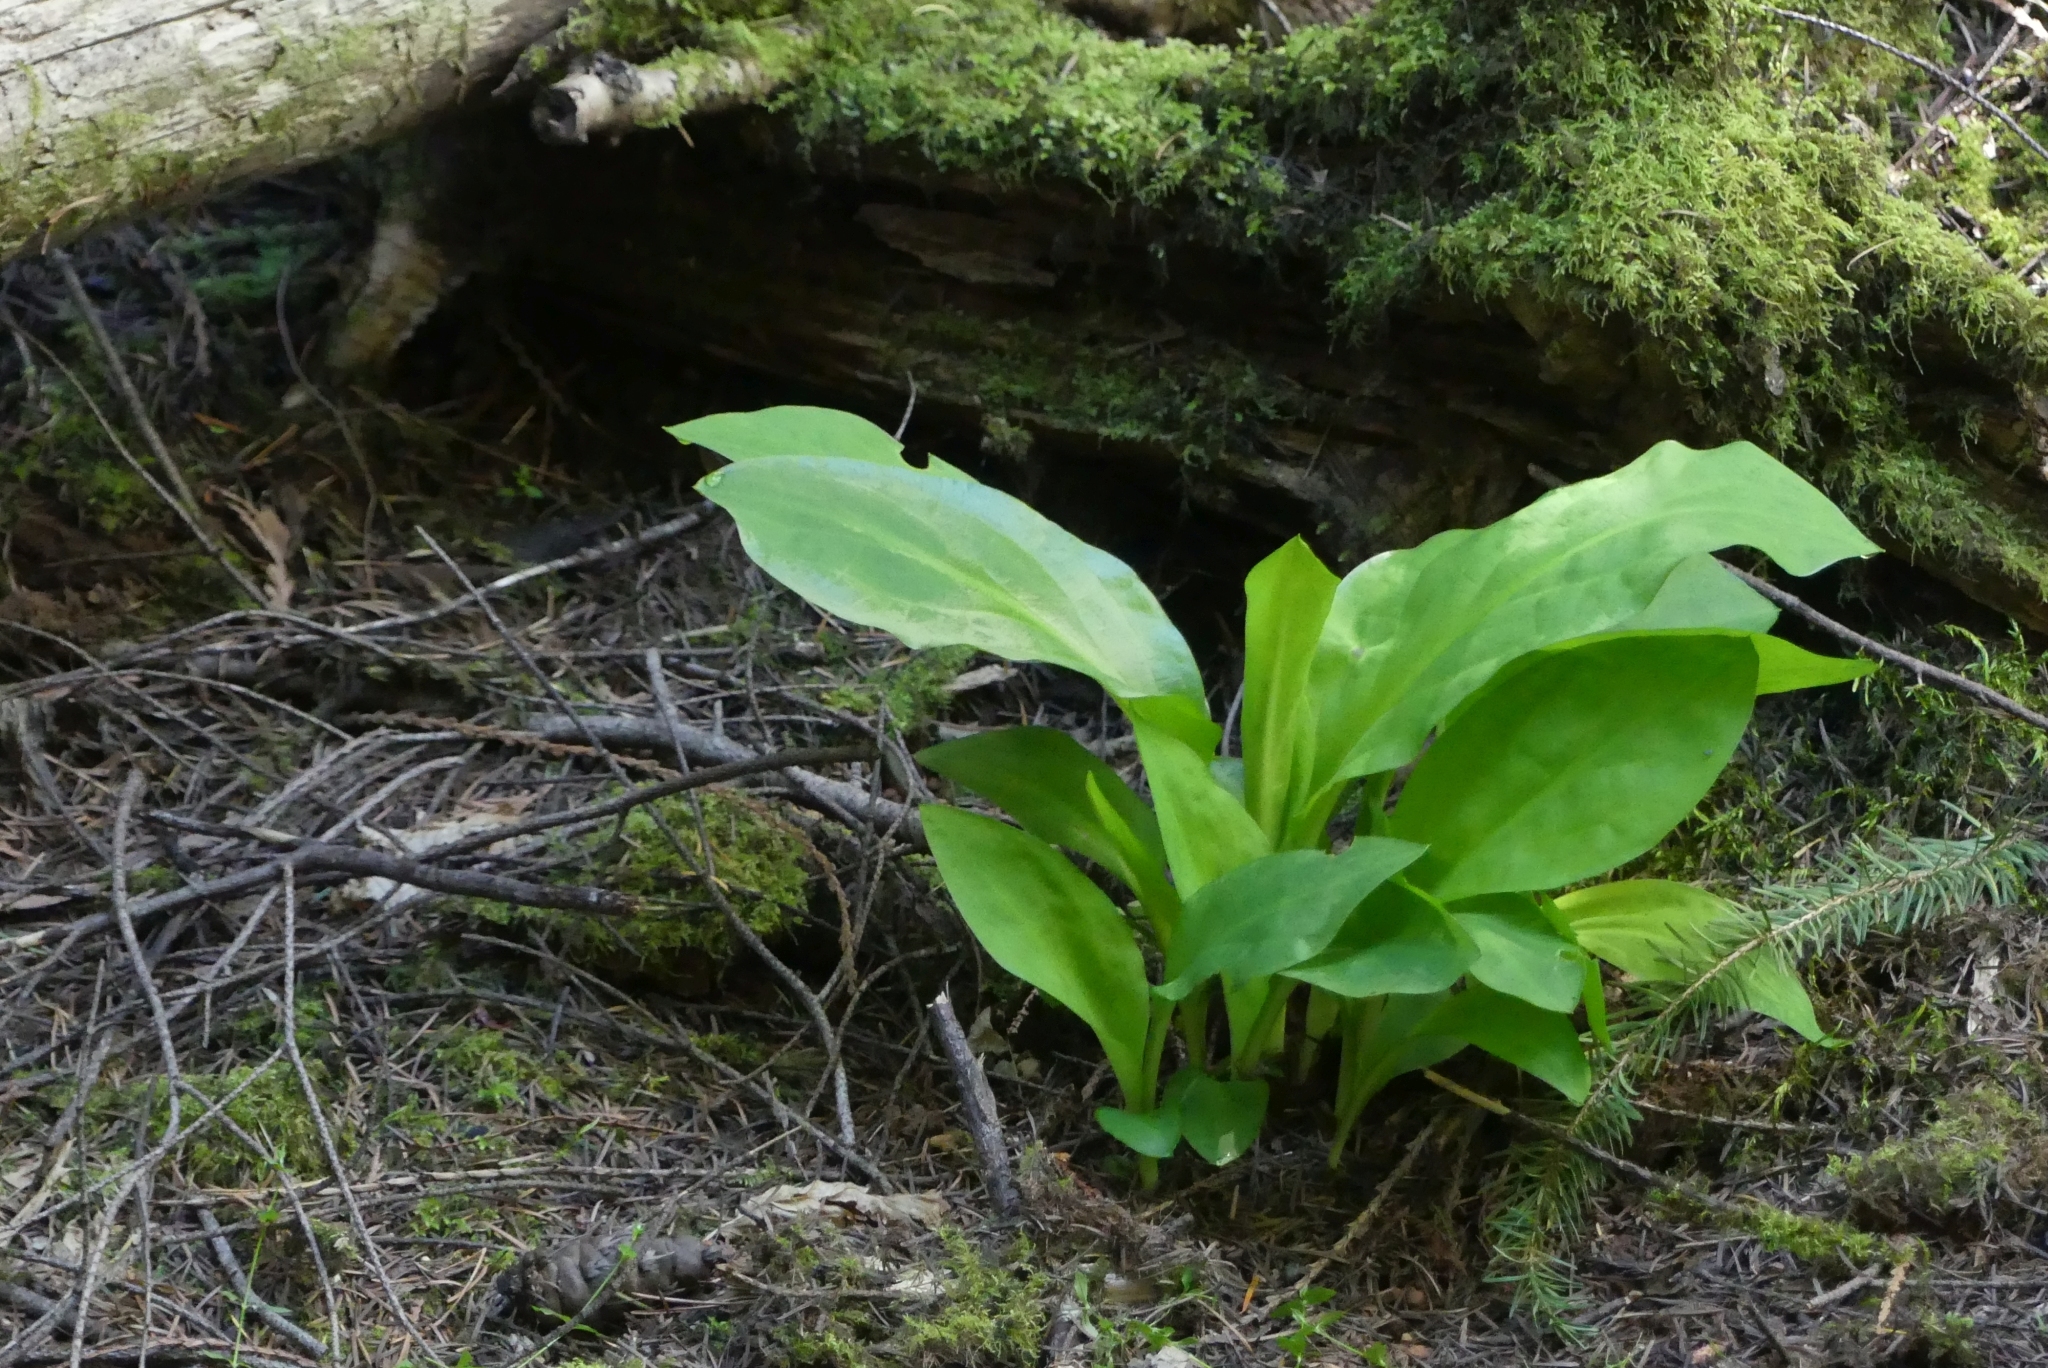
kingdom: Plantae
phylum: Tracheophyta
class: Liliopsida
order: Alismatales
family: Araceae
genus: Lysichiton
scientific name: Lysichiton americanus
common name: American skunk cabbage
